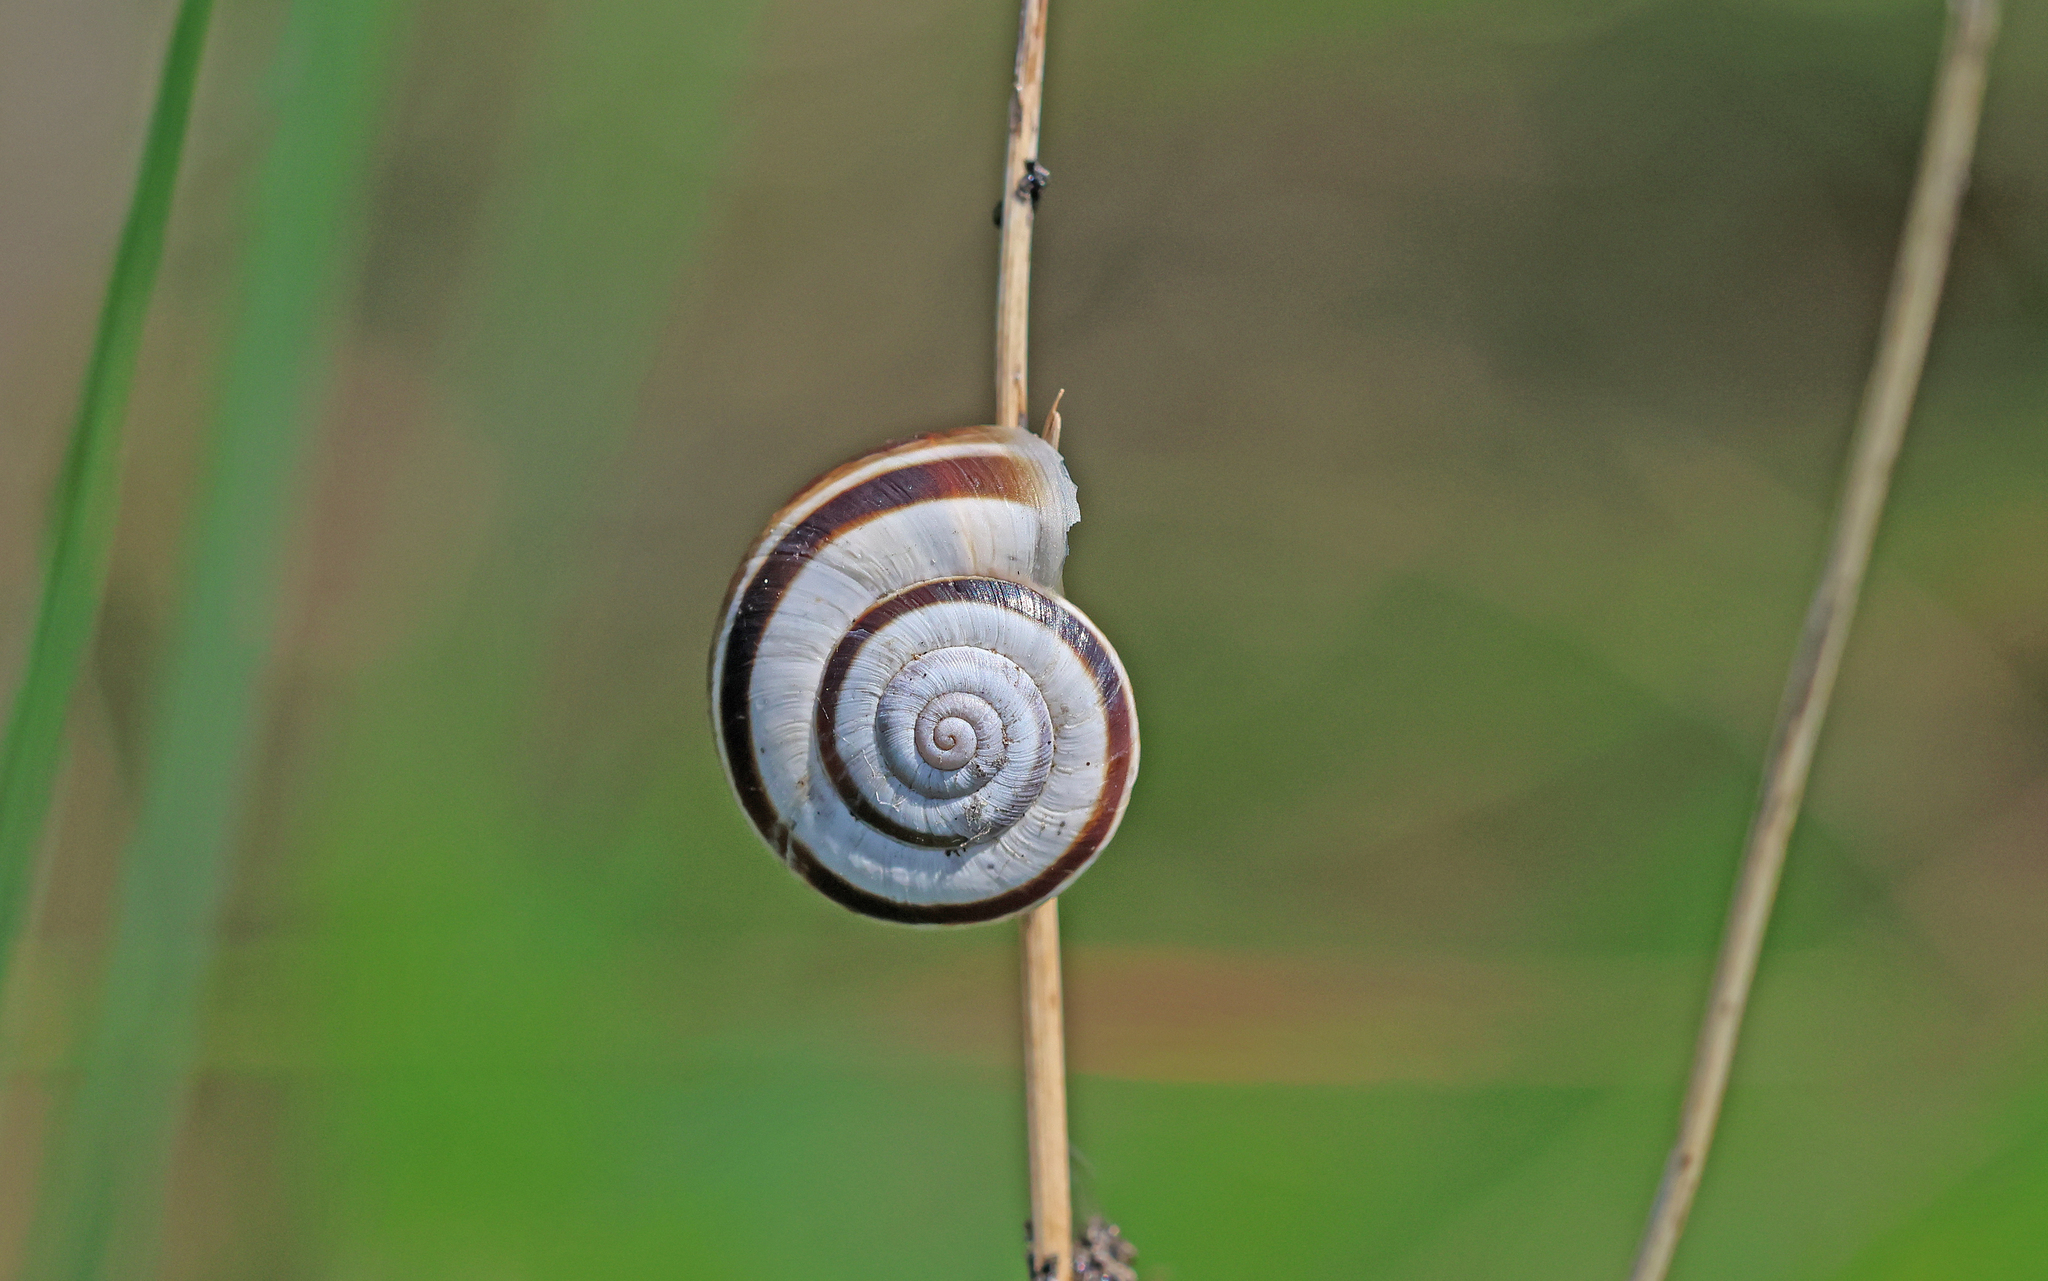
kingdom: Animalia
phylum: Mollusca
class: Gastropoda
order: Stylommatophora
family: Geomitridae
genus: Xerolenta
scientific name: Xerolenta obvia
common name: White heath snail
